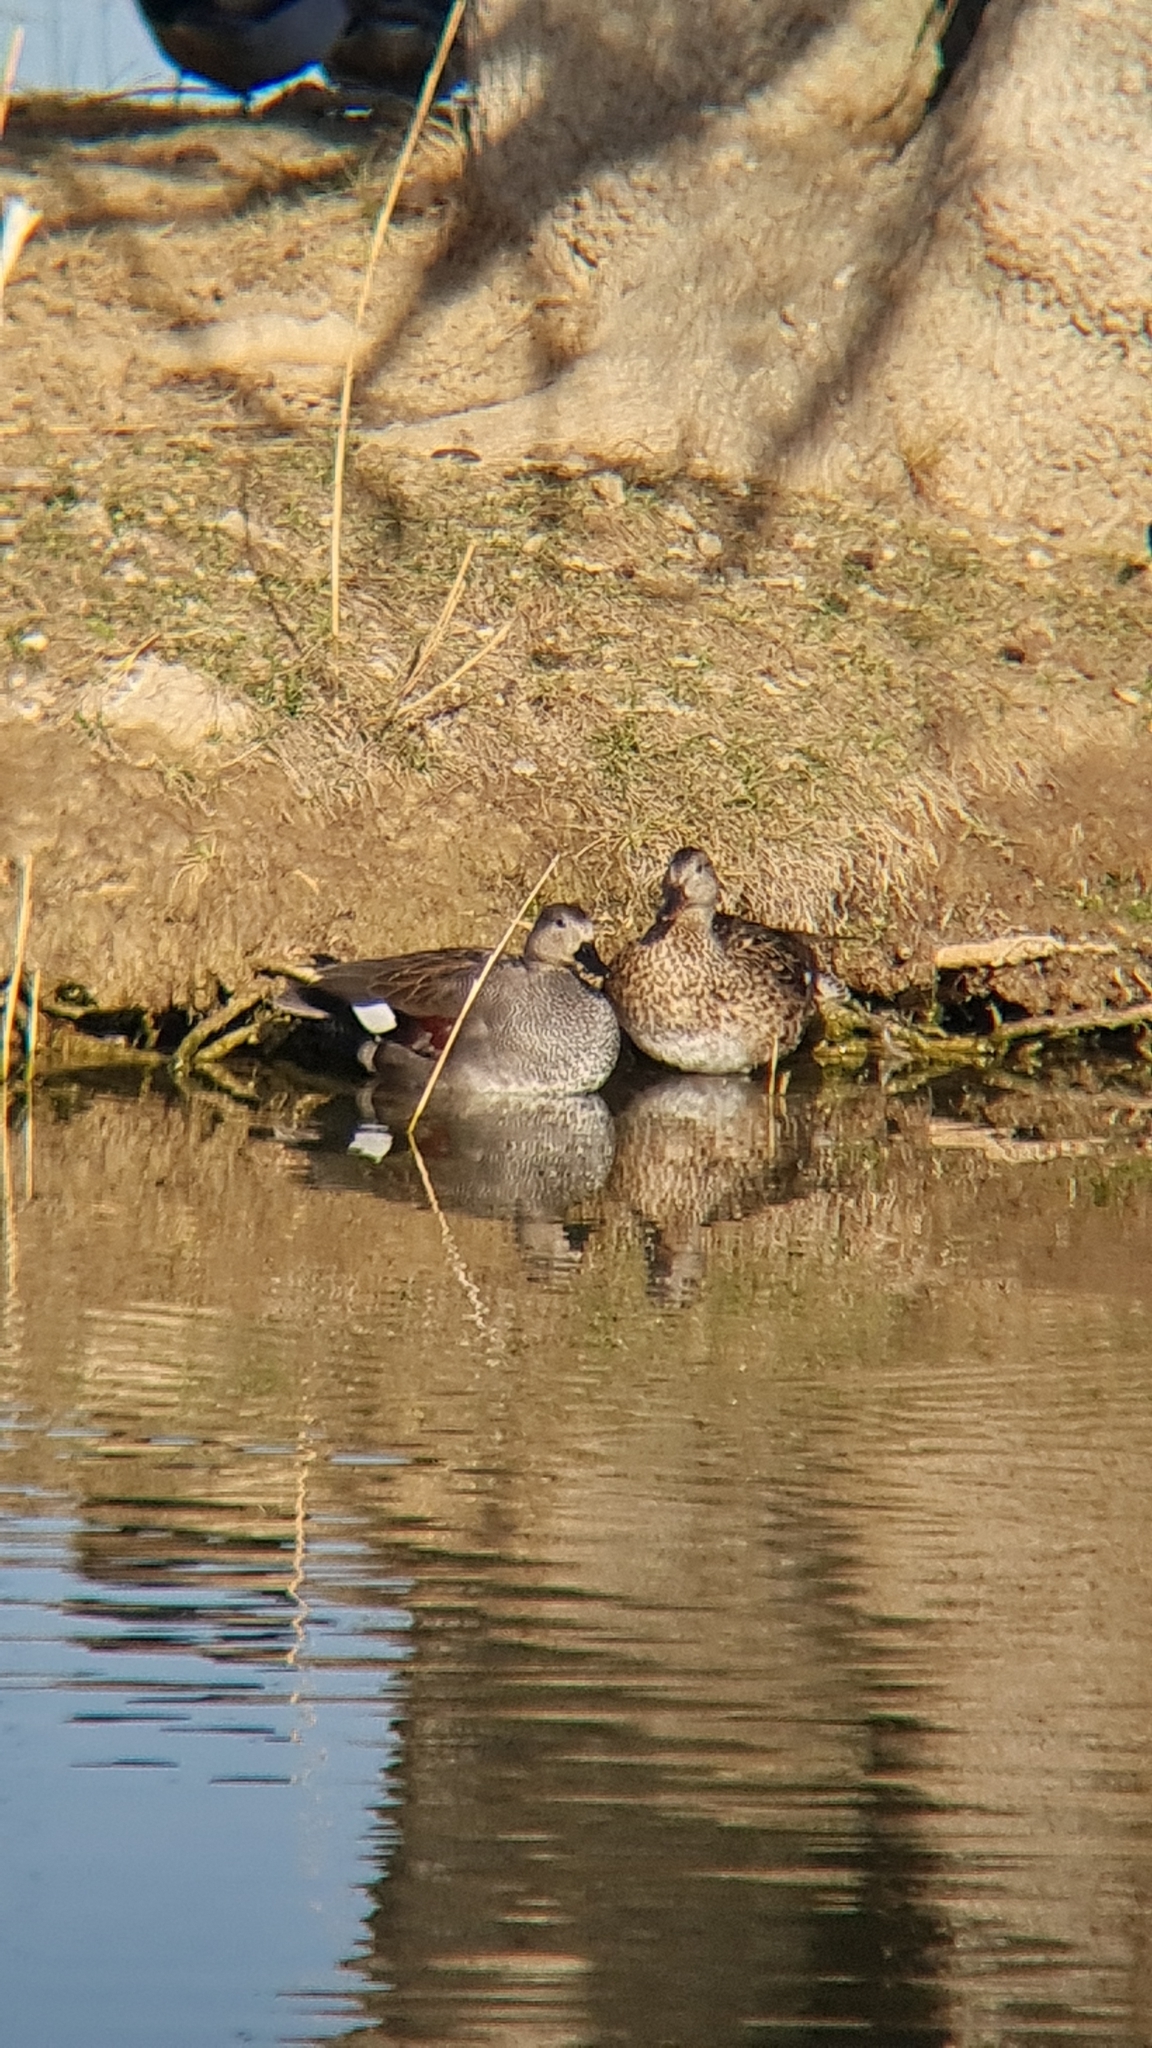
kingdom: Animalia
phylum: Chordata
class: Aves
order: Anseriformes
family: Anatidae
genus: Mareca
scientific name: Mareca strepera
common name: Gadwall
